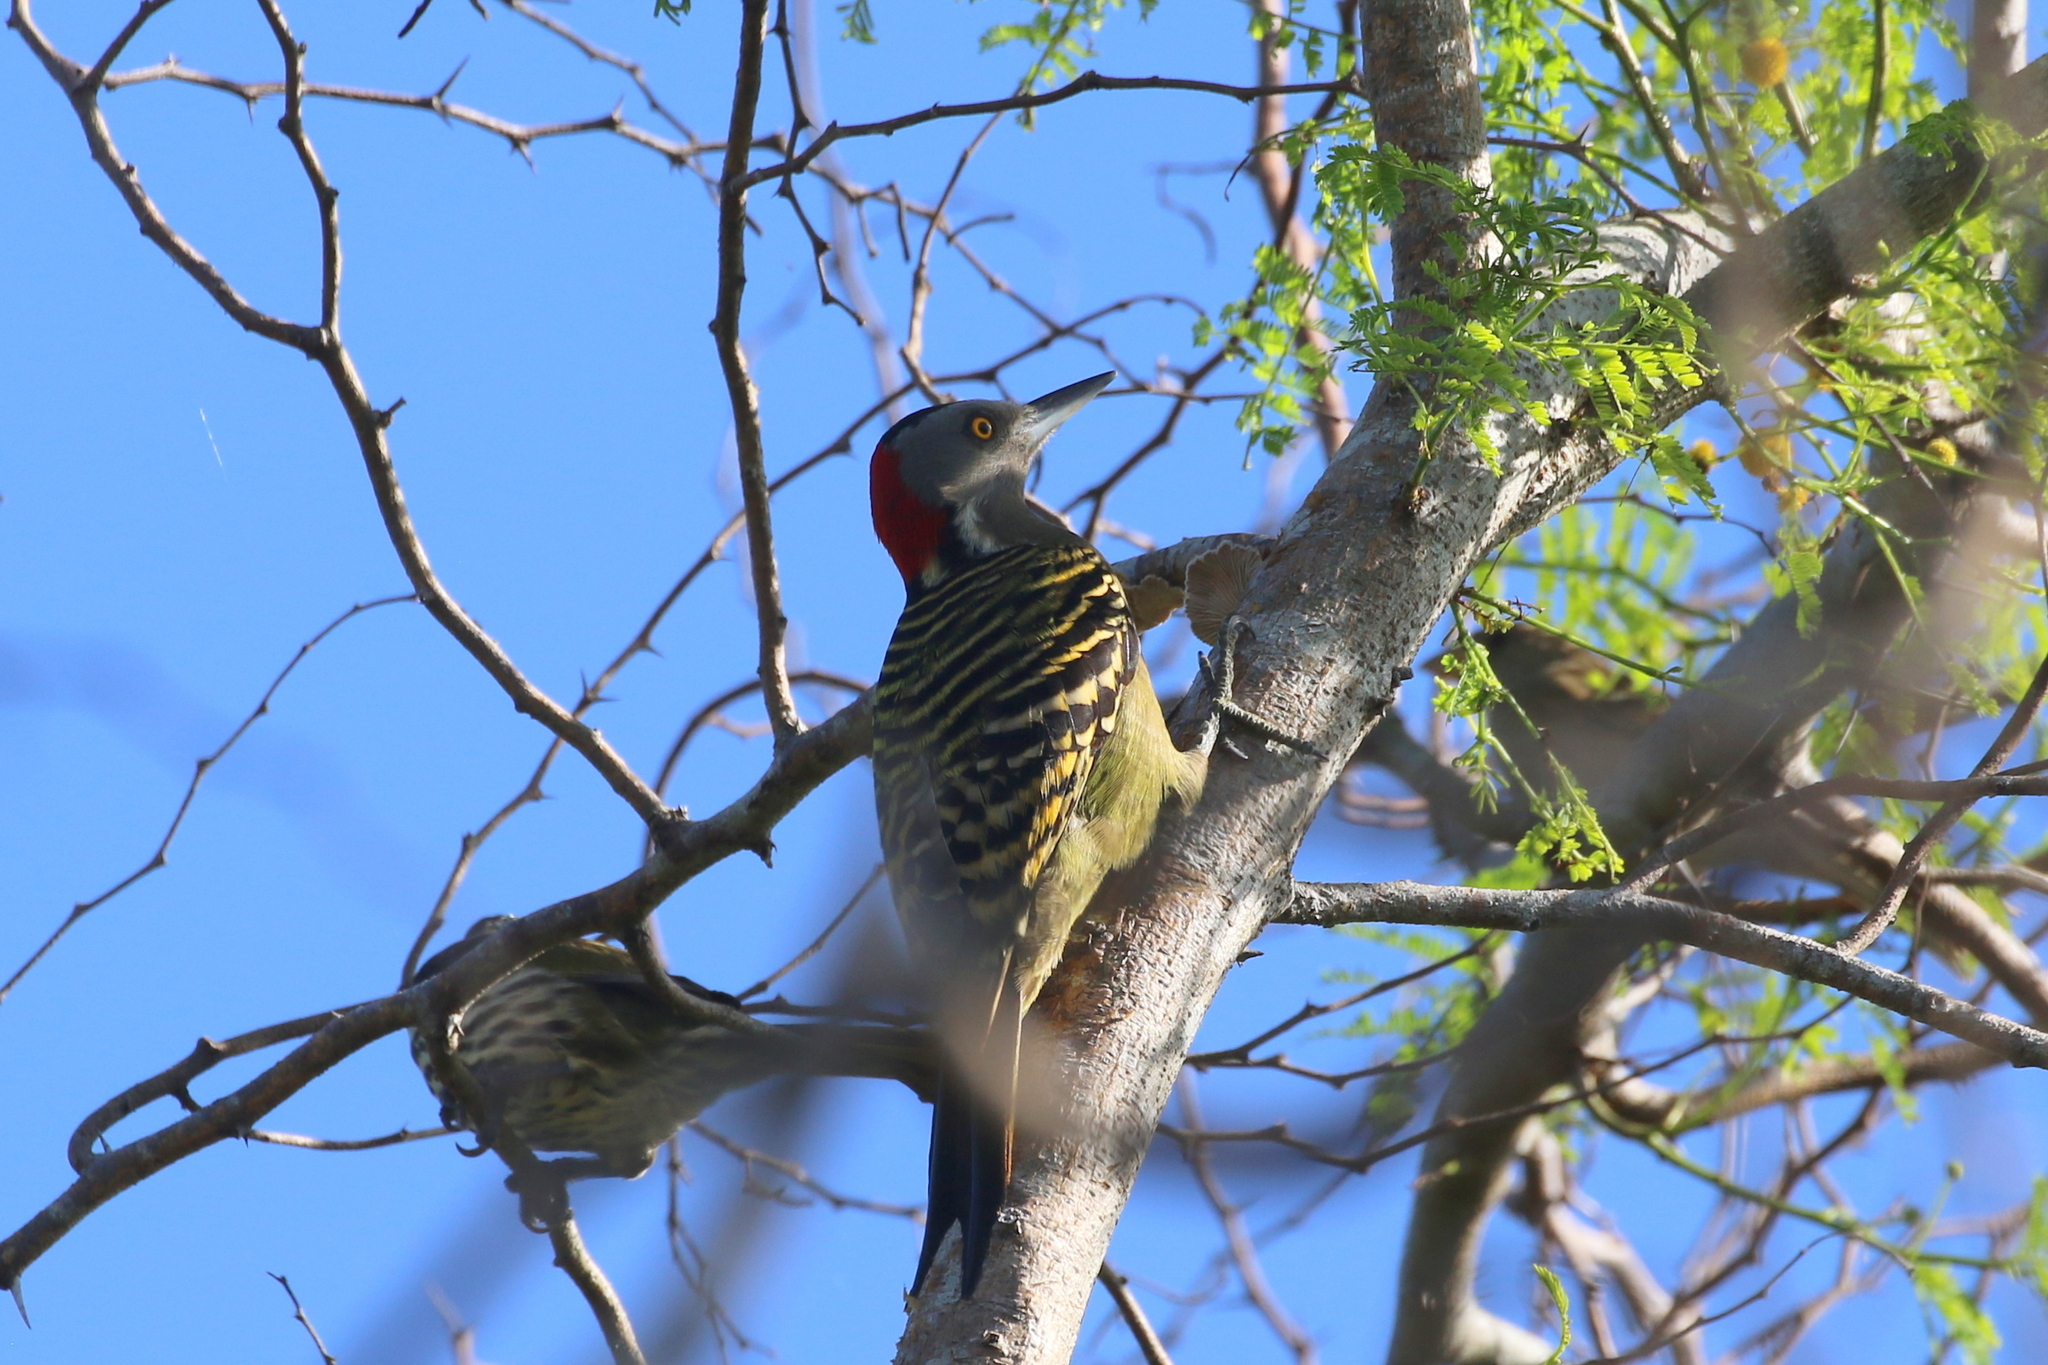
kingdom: Animalia
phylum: Chordata
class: Aves
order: Piciformes
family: Picidae
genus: Melanerpes
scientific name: Melanerpes striatus
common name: Hispaniolan woodpecker
